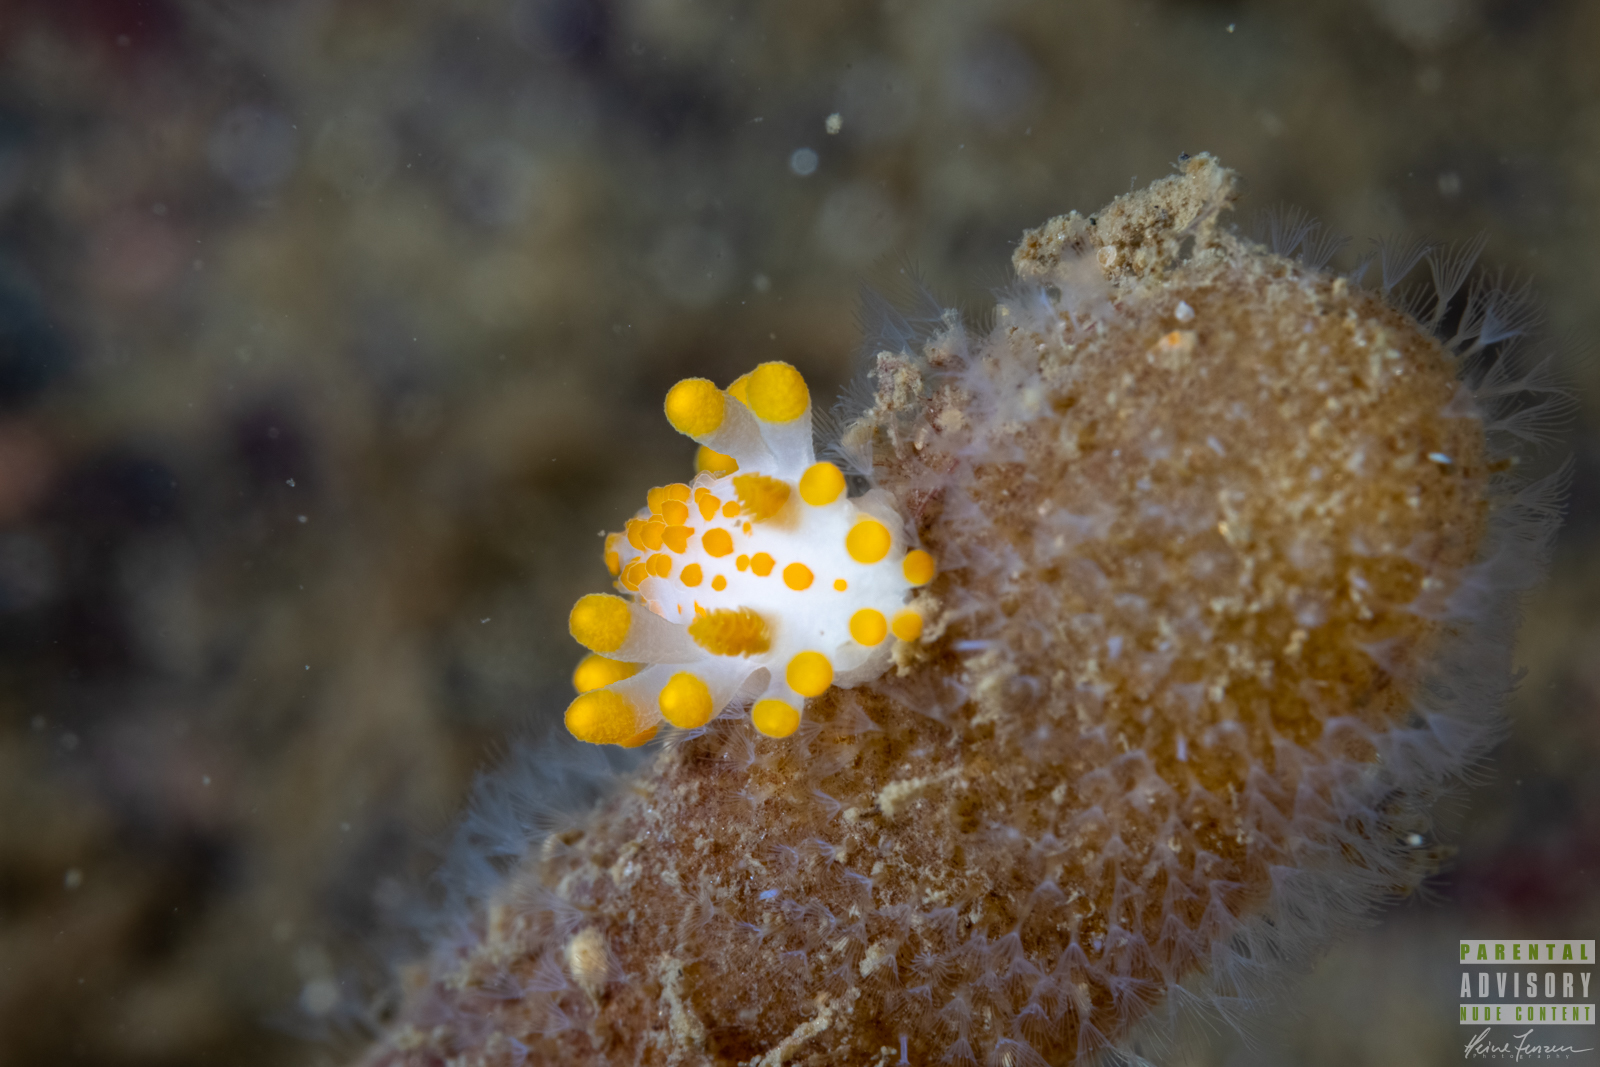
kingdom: Animalia
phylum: Mollusca
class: Gastropoda
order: Nudibranchia
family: Polyceridae
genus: Limacia
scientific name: Limacia clavigera
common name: Orange-clubbed sea slug
